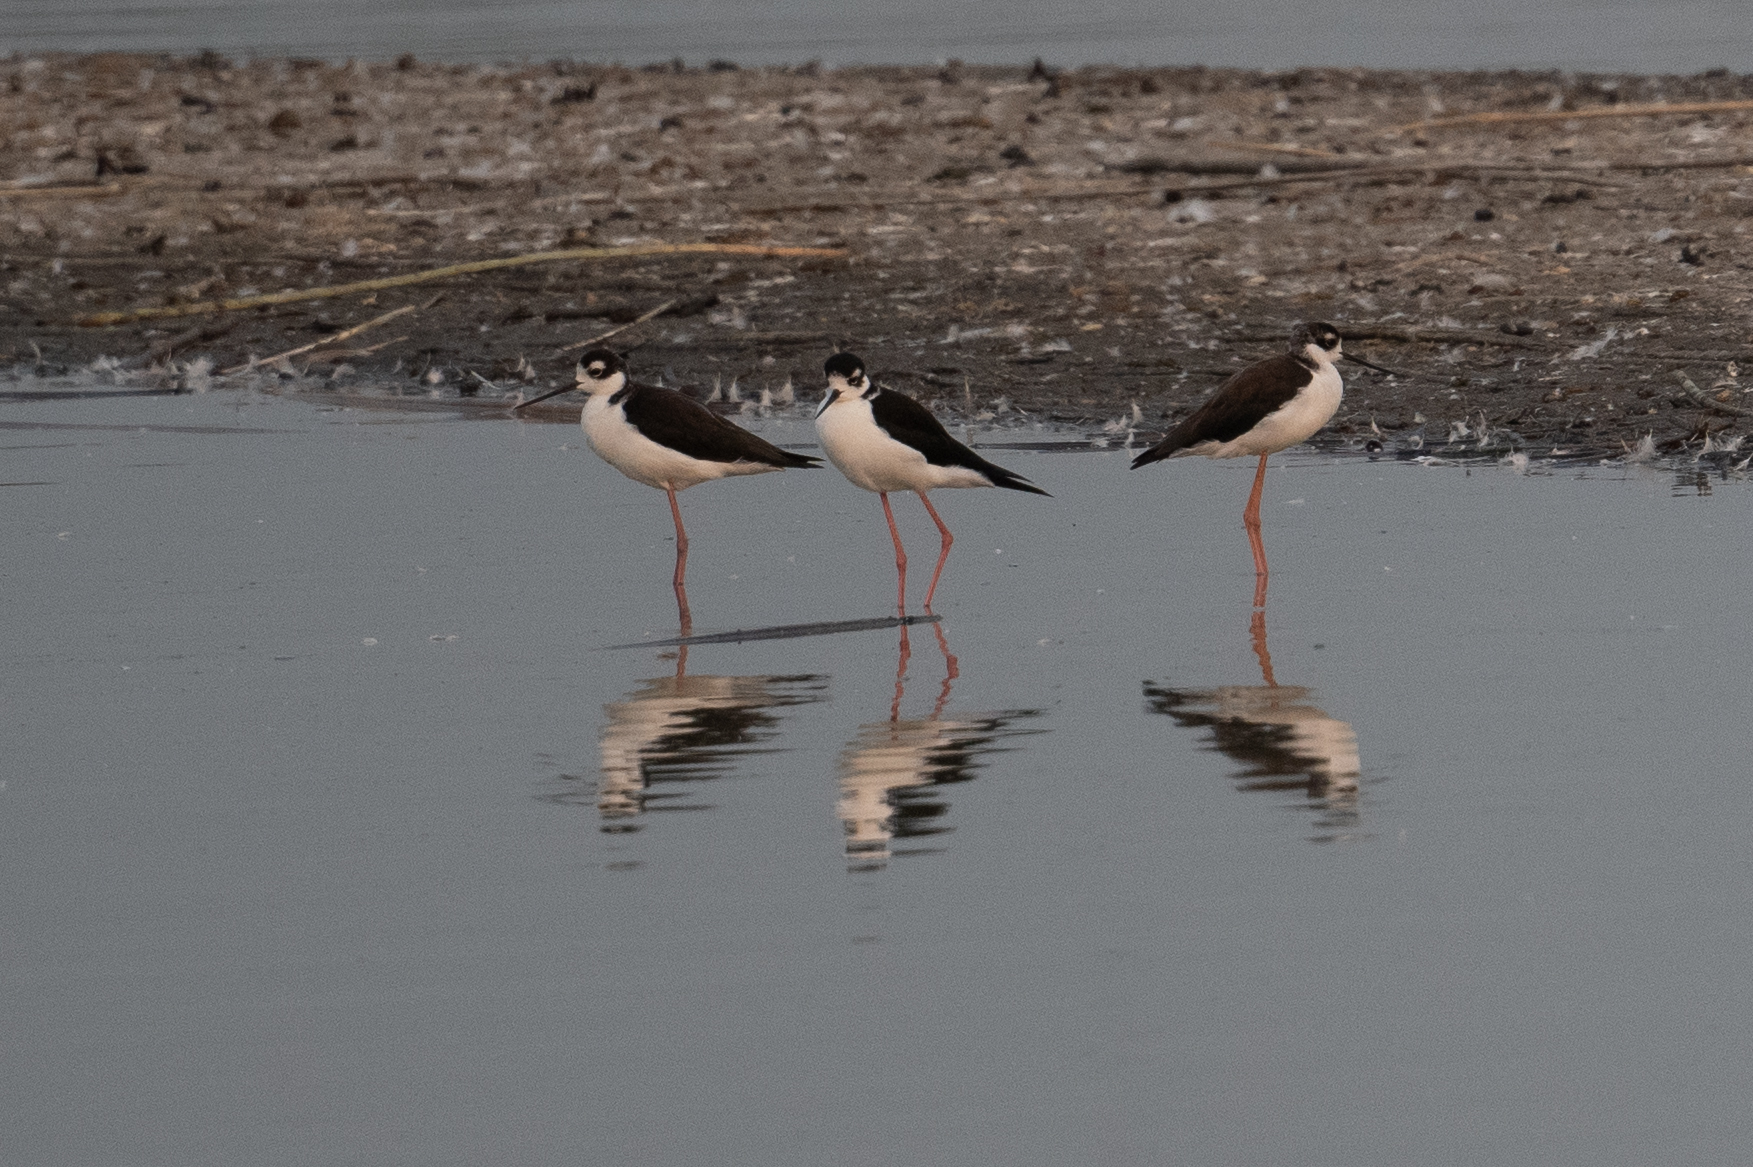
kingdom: Animalia
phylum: Chordata
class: Aves
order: Charadriiformes
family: Recurvirostridae
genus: Himantopus
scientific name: Himantopus mexicanus
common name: Black-necked stilt
